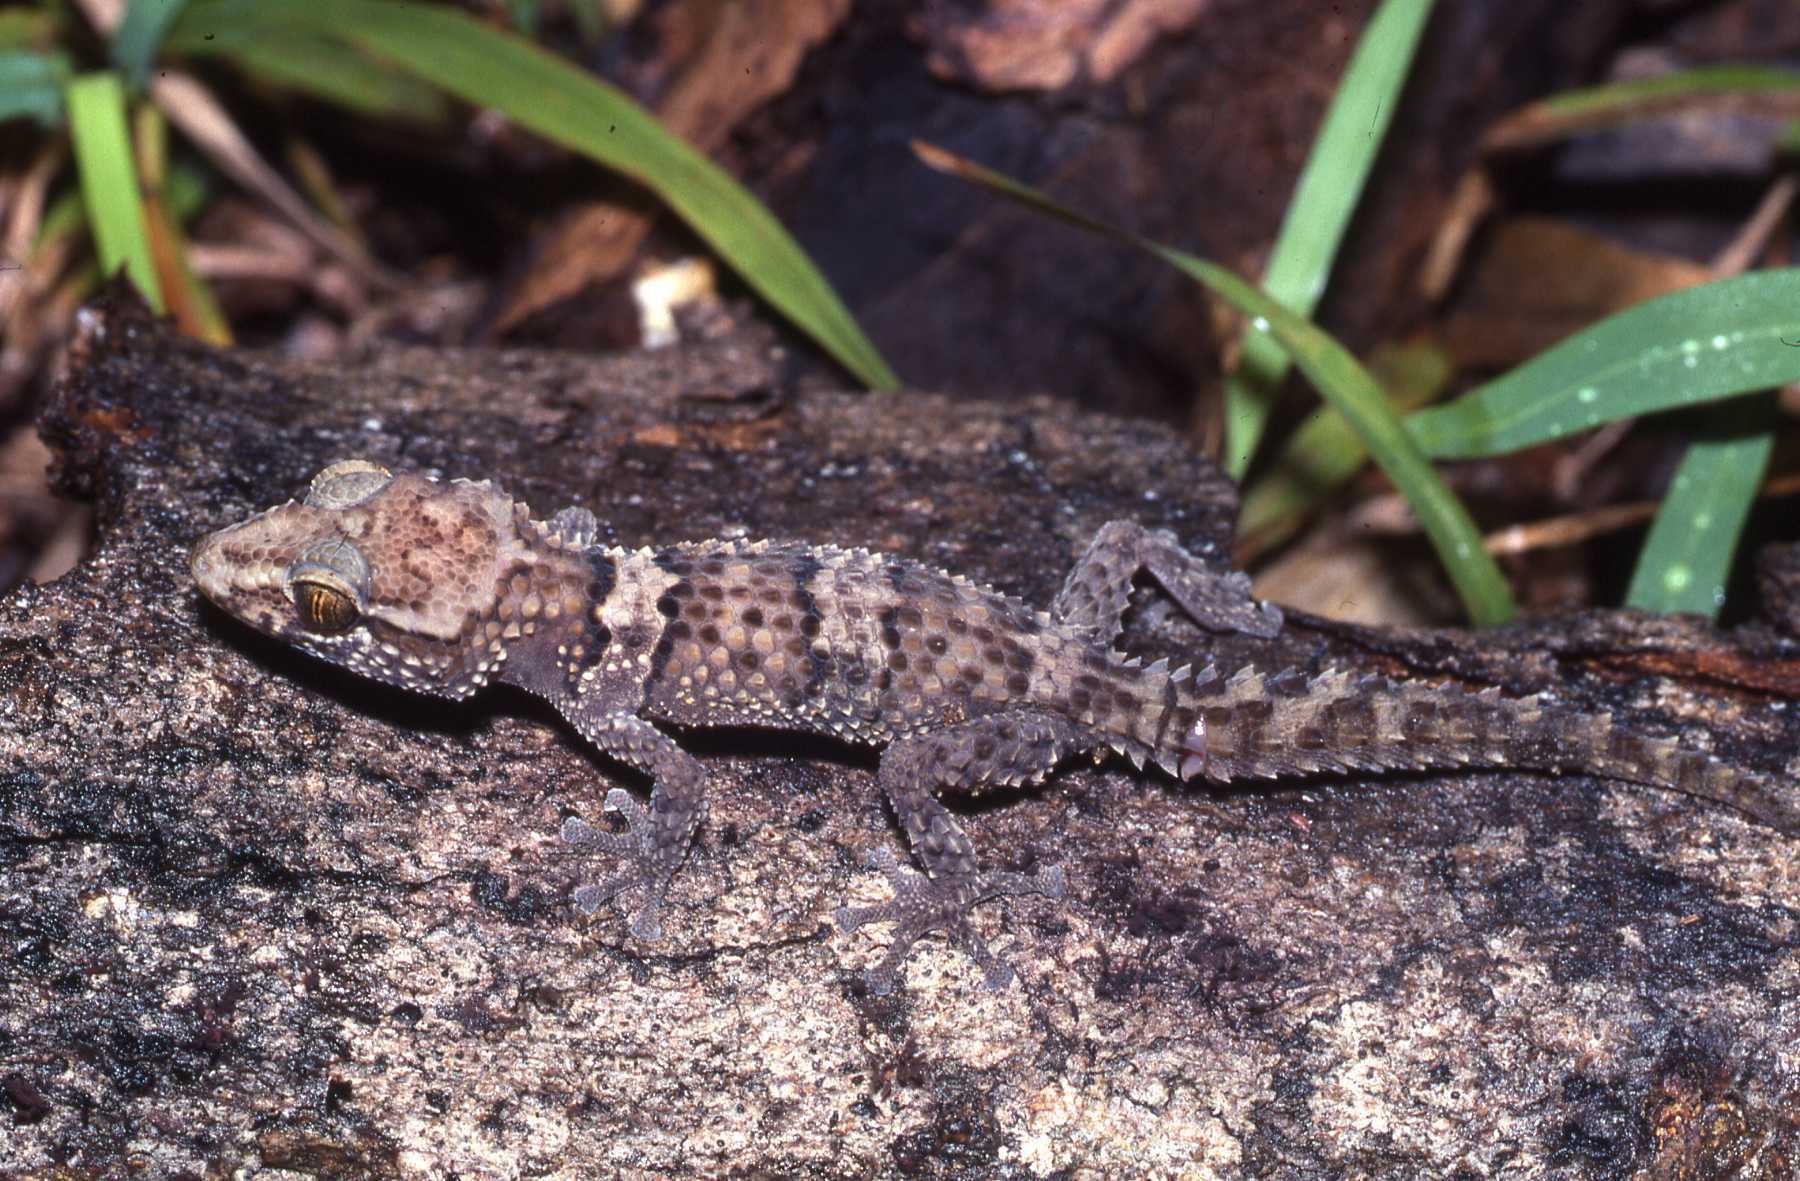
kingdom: Animalia
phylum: Chordata
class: Squamata
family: Gekkonidae
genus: Paroedura
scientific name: Paroedura bastardi
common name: Mocquard's madagascar ground gecko
